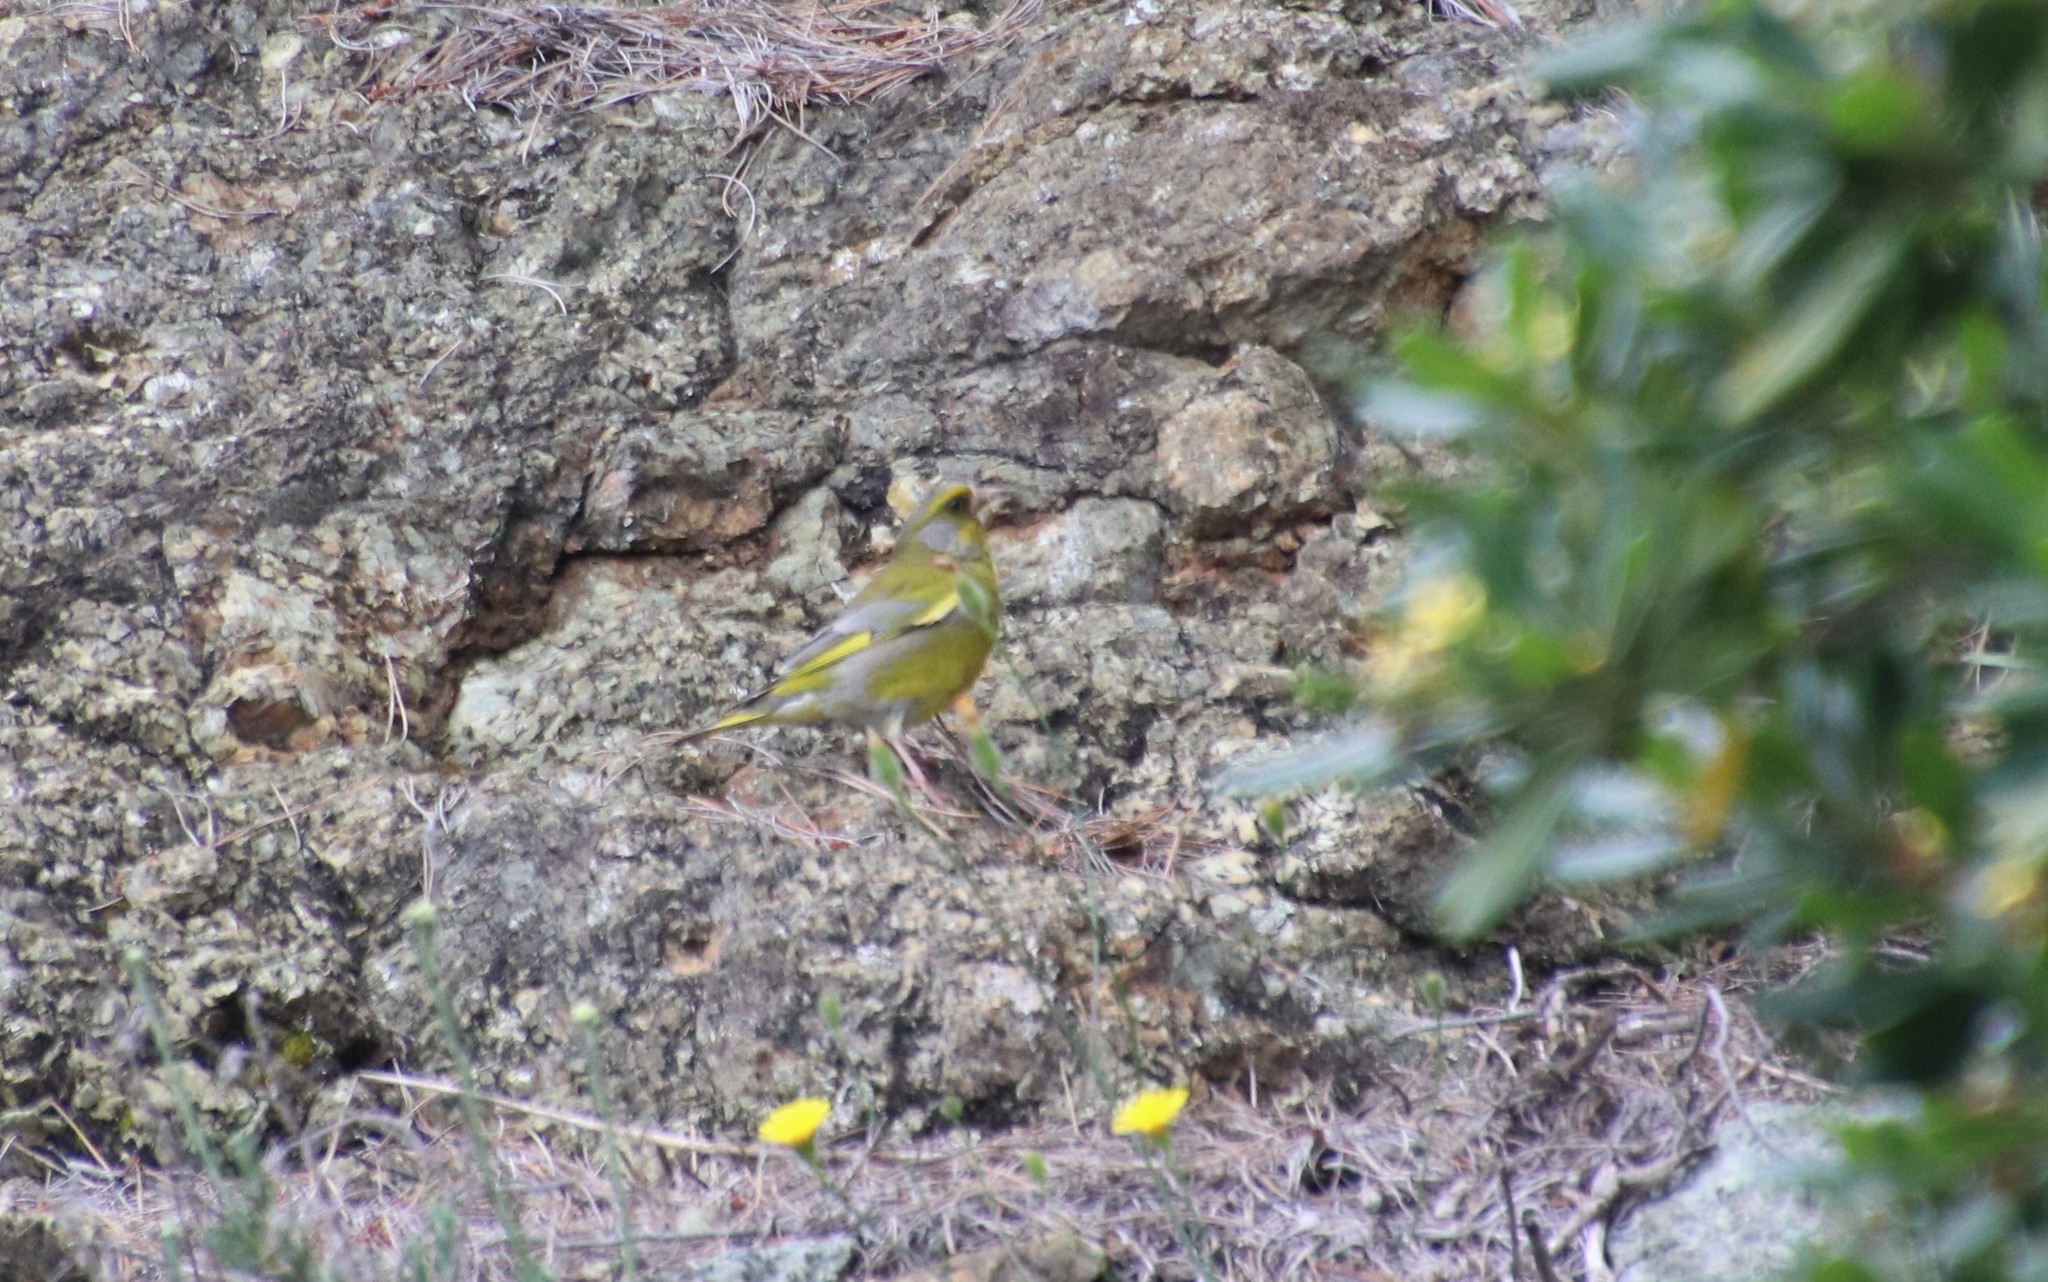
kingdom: Plantae
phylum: Tracheophyta
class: Liliopsida
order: Poales
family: Poaceae
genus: Chloris
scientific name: Chloris chloris
